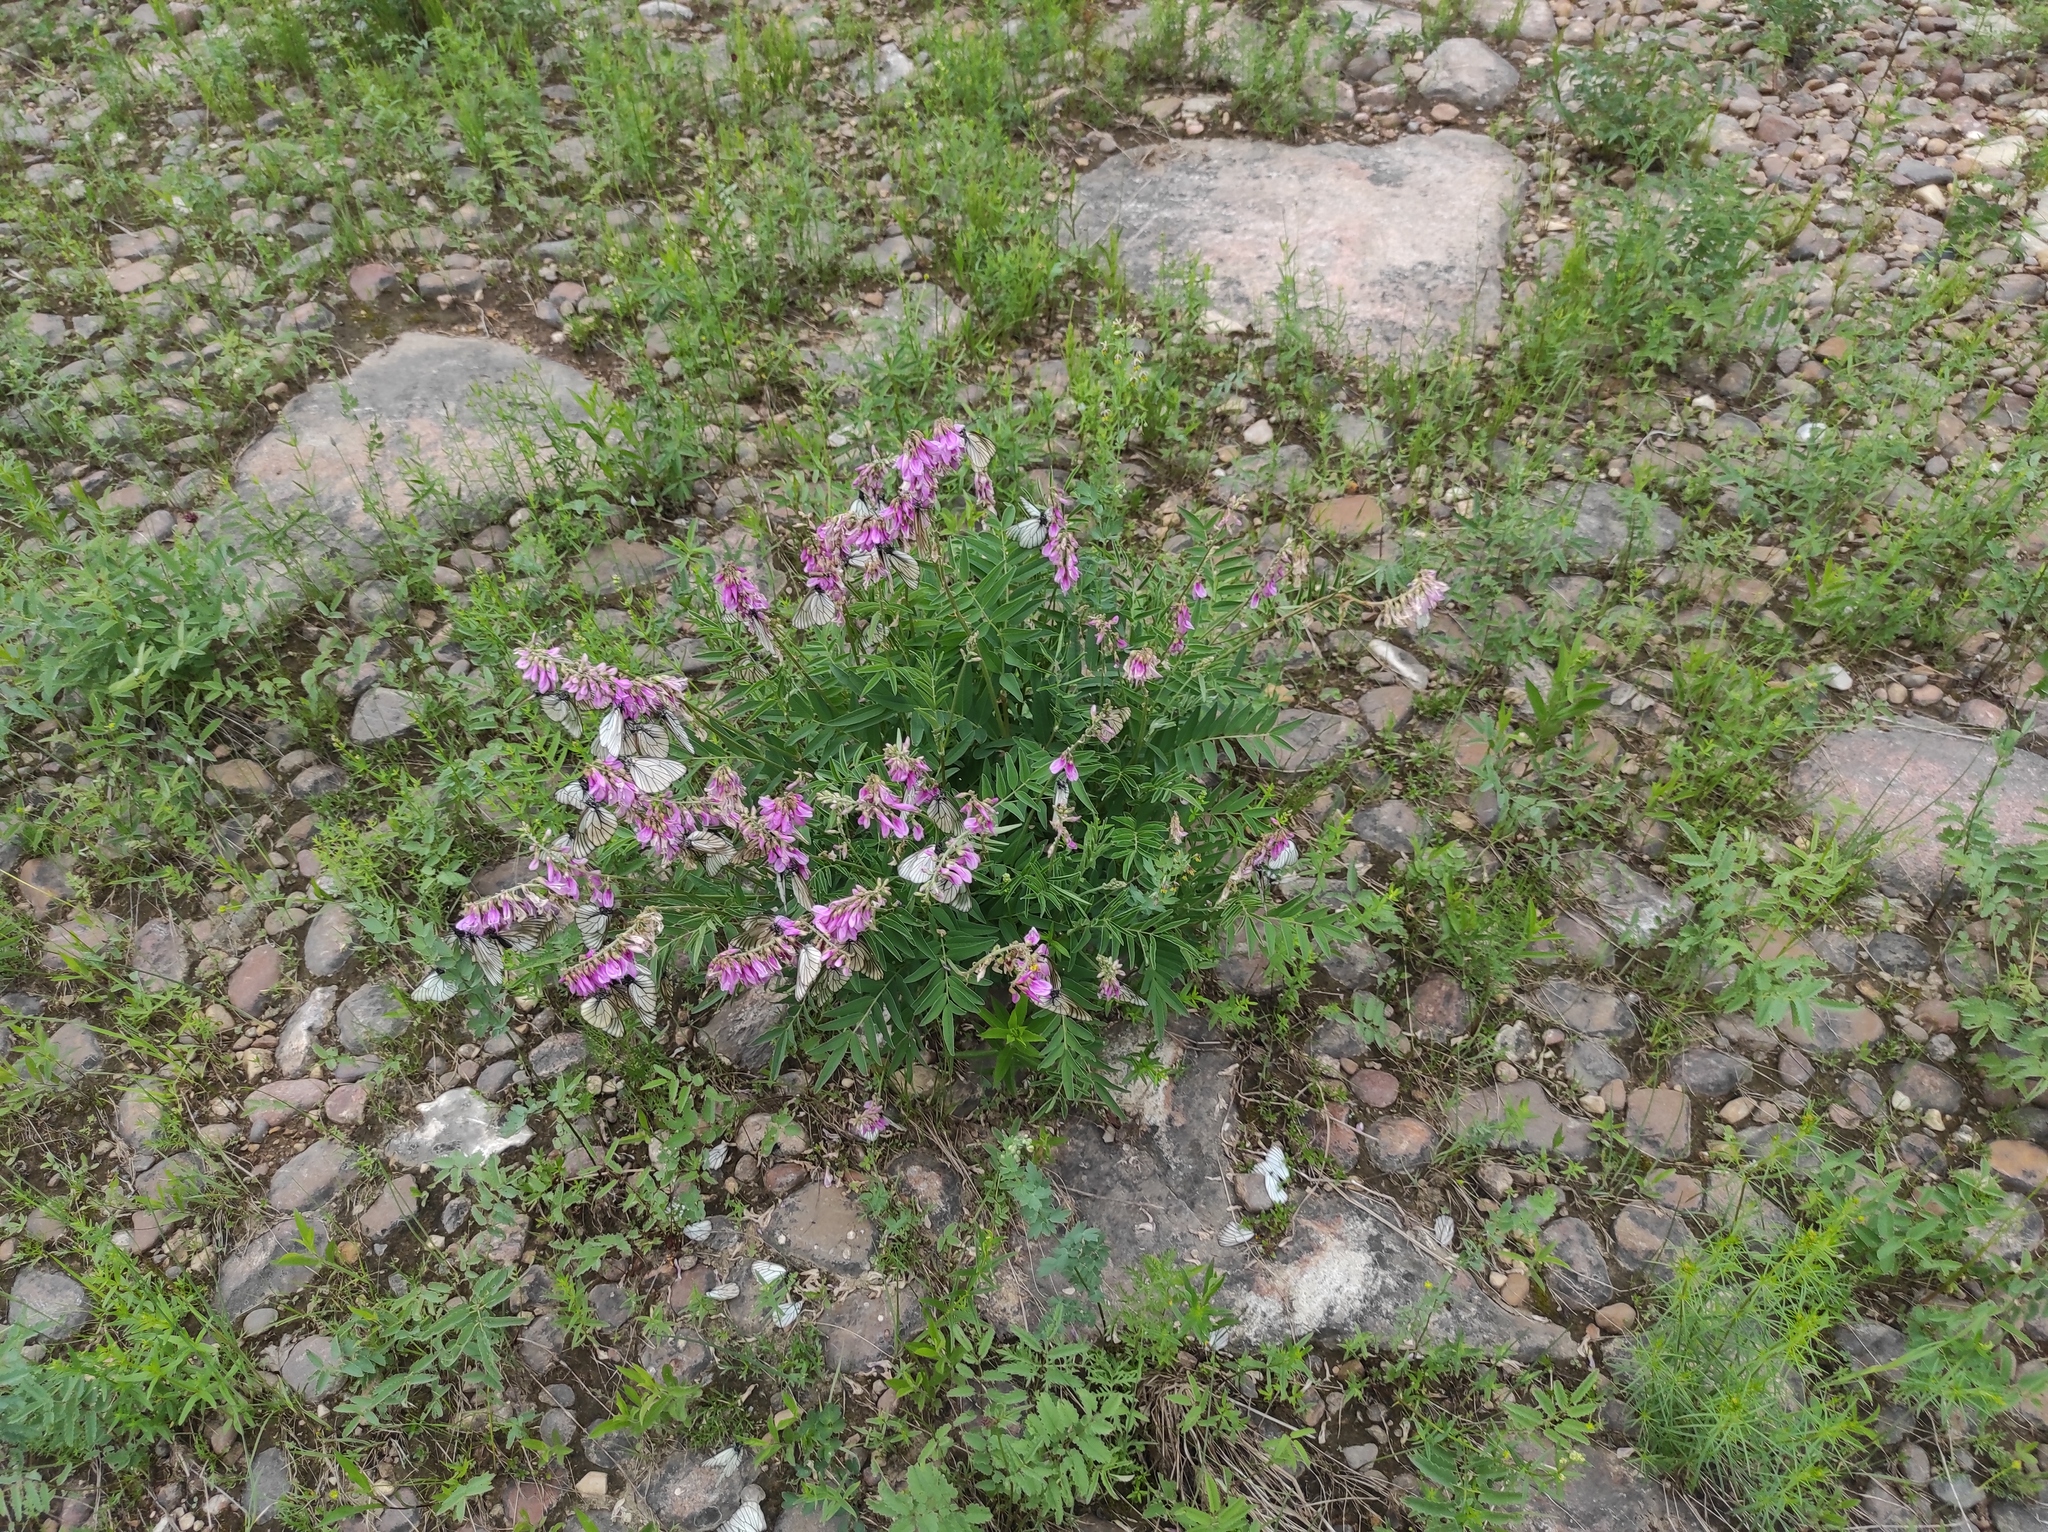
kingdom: Animalia
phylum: Arthropoda
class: Insecta
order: Lepidoptera
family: Pieridae
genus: Aporia
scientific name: Aporia crataegi
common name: Black-veined white
